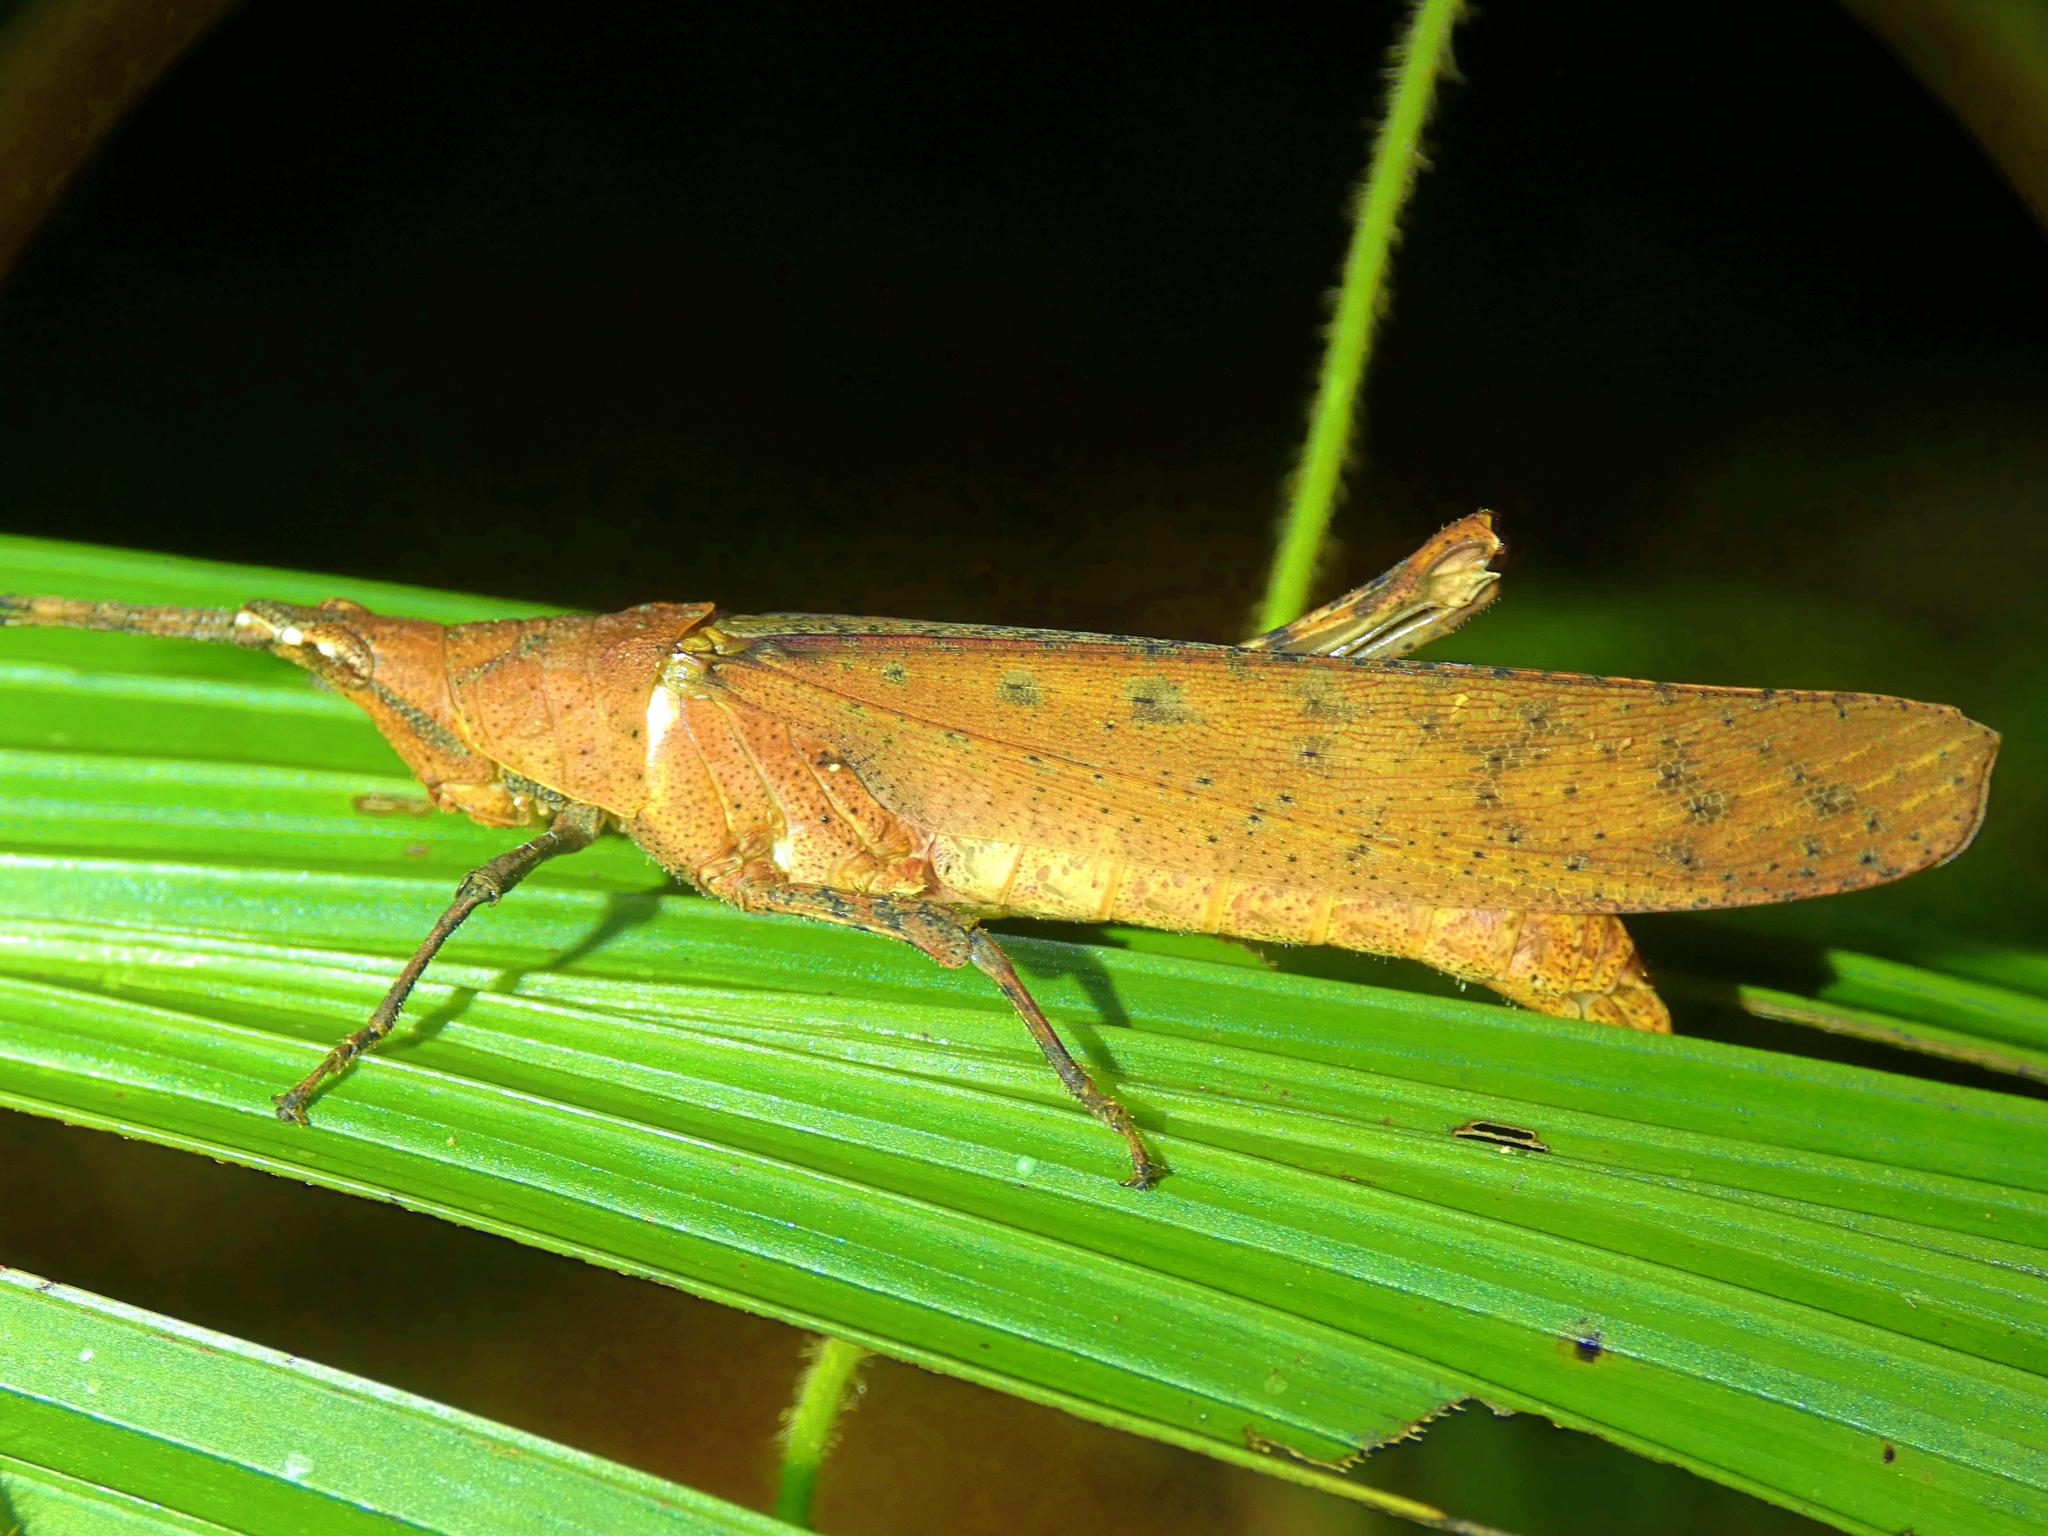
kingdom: Animalia
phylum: Arthropoda
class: Insecta
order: Orthoptera
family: Pyrgomorphidae
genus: Desmoptera
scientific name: Desmoptera truncatipennis
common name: Large forest pyrgomorph
